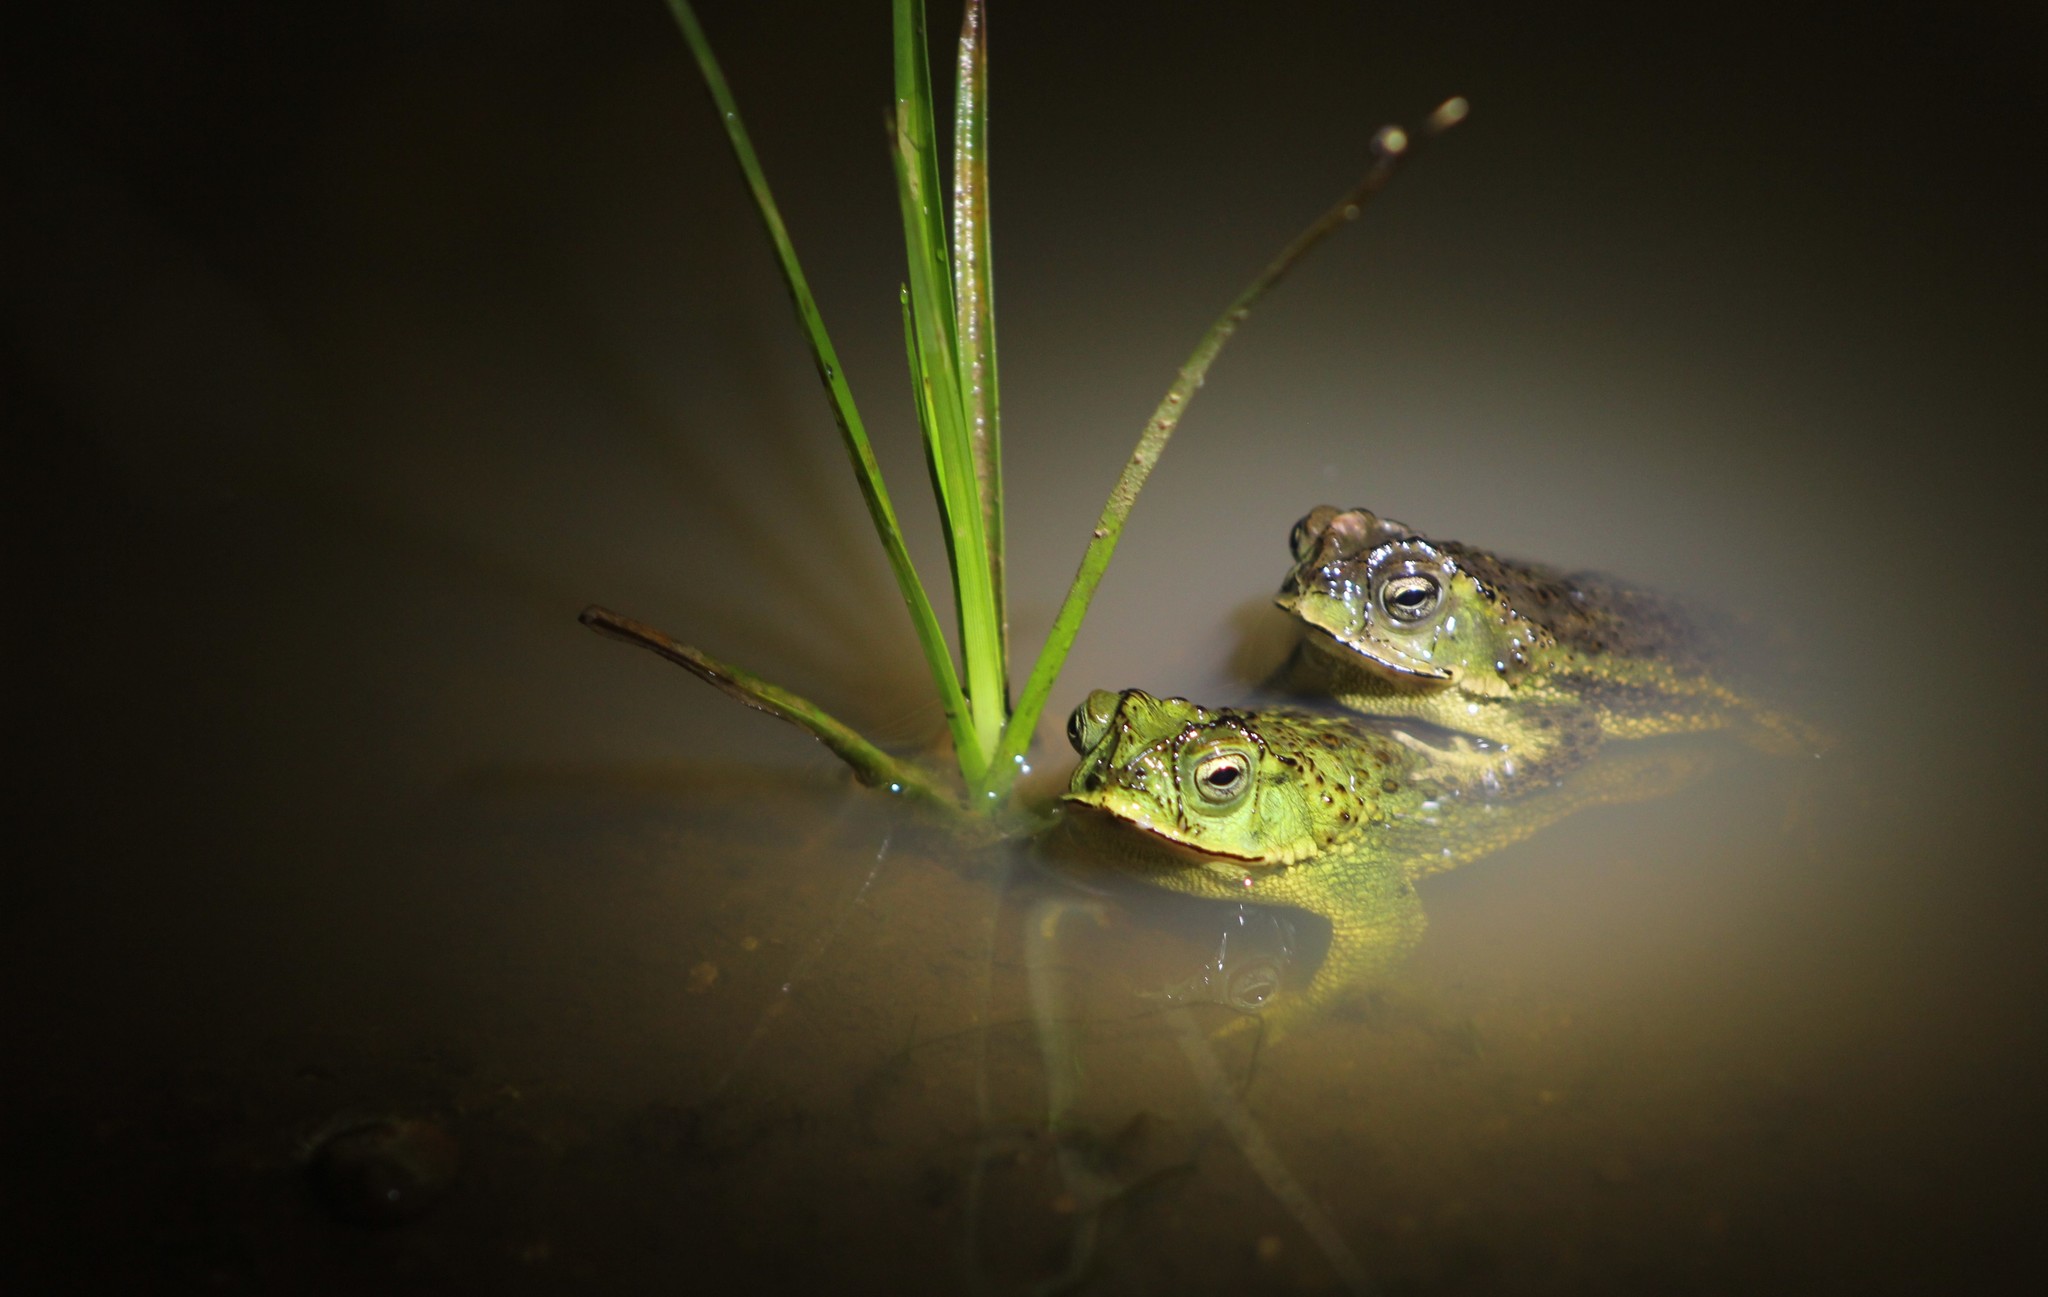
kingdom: Animalia
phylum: Chordata
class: Amphibia
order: Anura
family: Bufonidae
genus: Rhinella
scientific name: Rhinella dorbignyi
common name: D´orbigny’s toad
